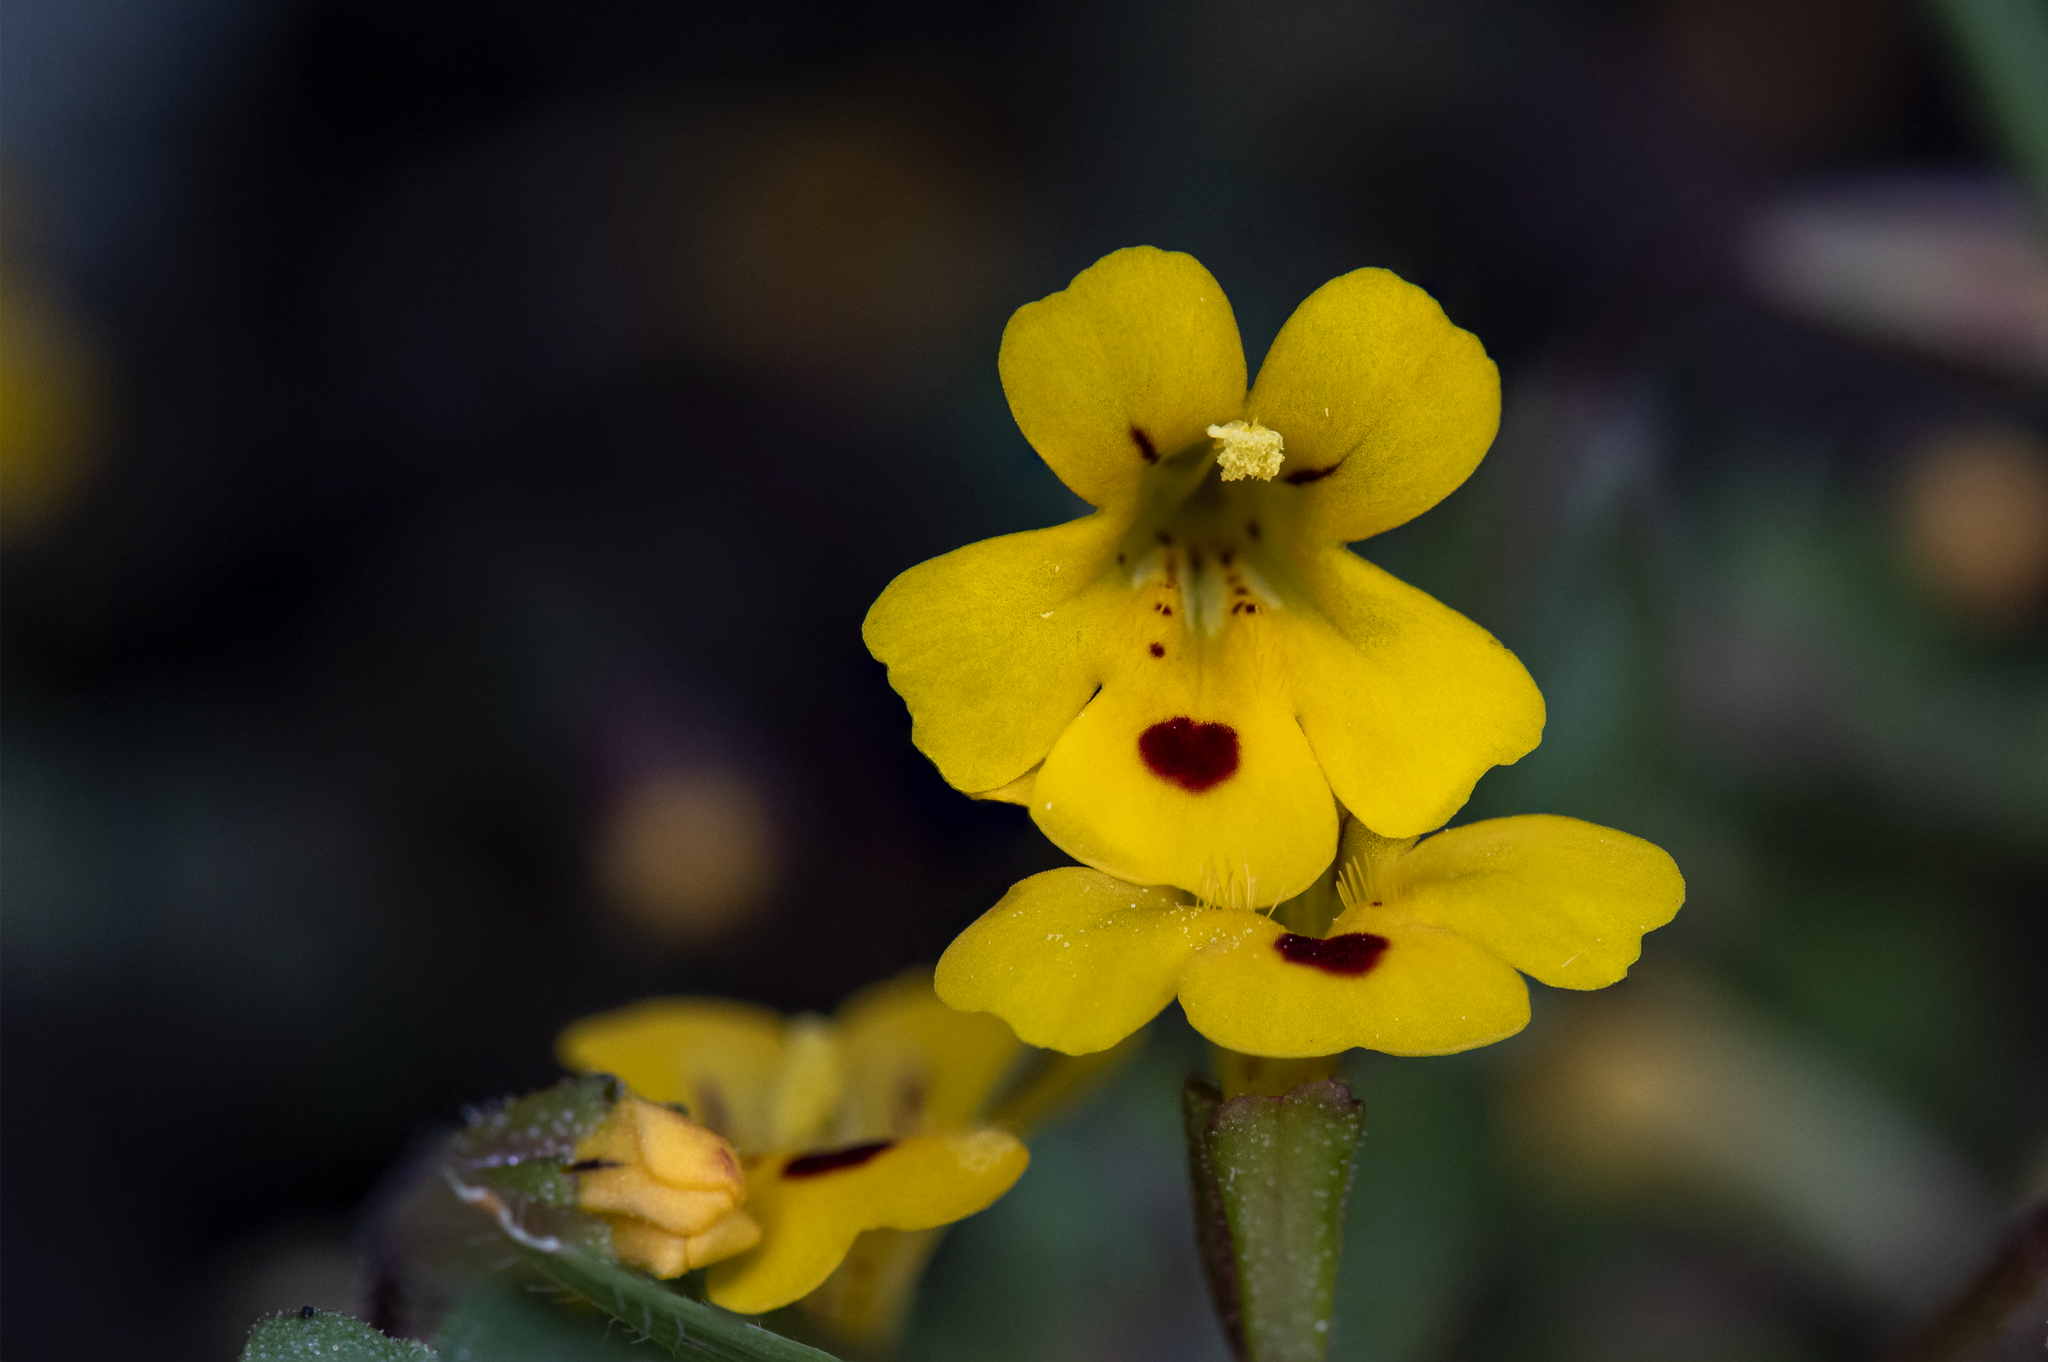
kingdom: Plantae
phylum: Tracheophyta
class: Magnoliopsida
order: Lamiales
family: Phrymaceae
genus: Erythranthe
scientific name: Erythranthe alsinoides
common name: Chickweed monkeyflower
